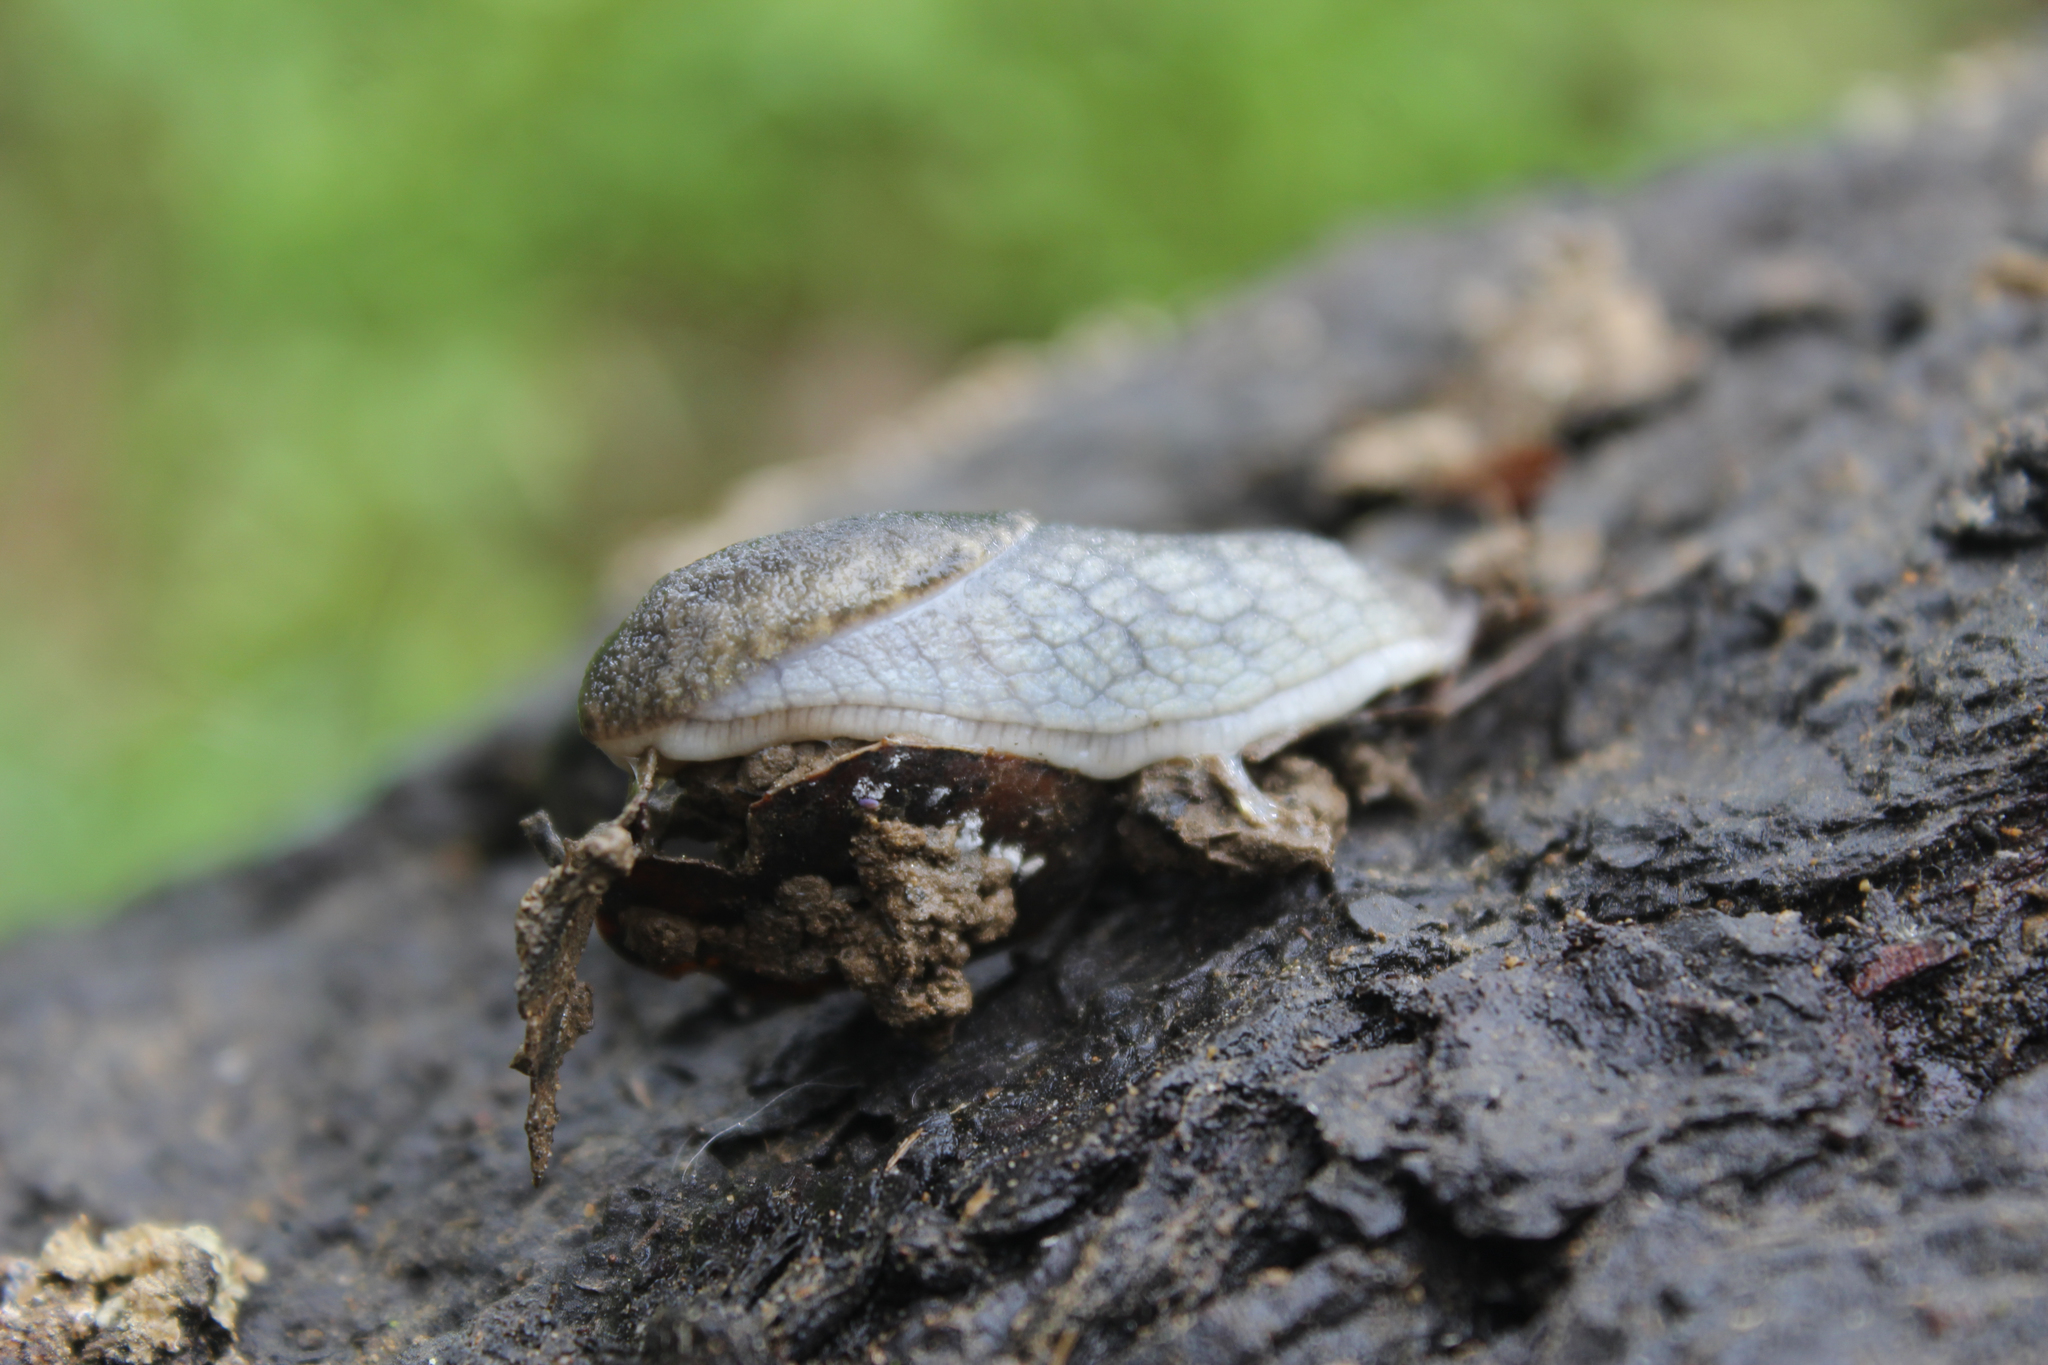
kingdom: Animalia
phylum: Mollusca
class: Gastropoda
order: Stylommatophora
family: Ariolimacidae
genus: Prophysaon
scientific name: Prophysaon andersonii
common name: Reticulate taildropper
